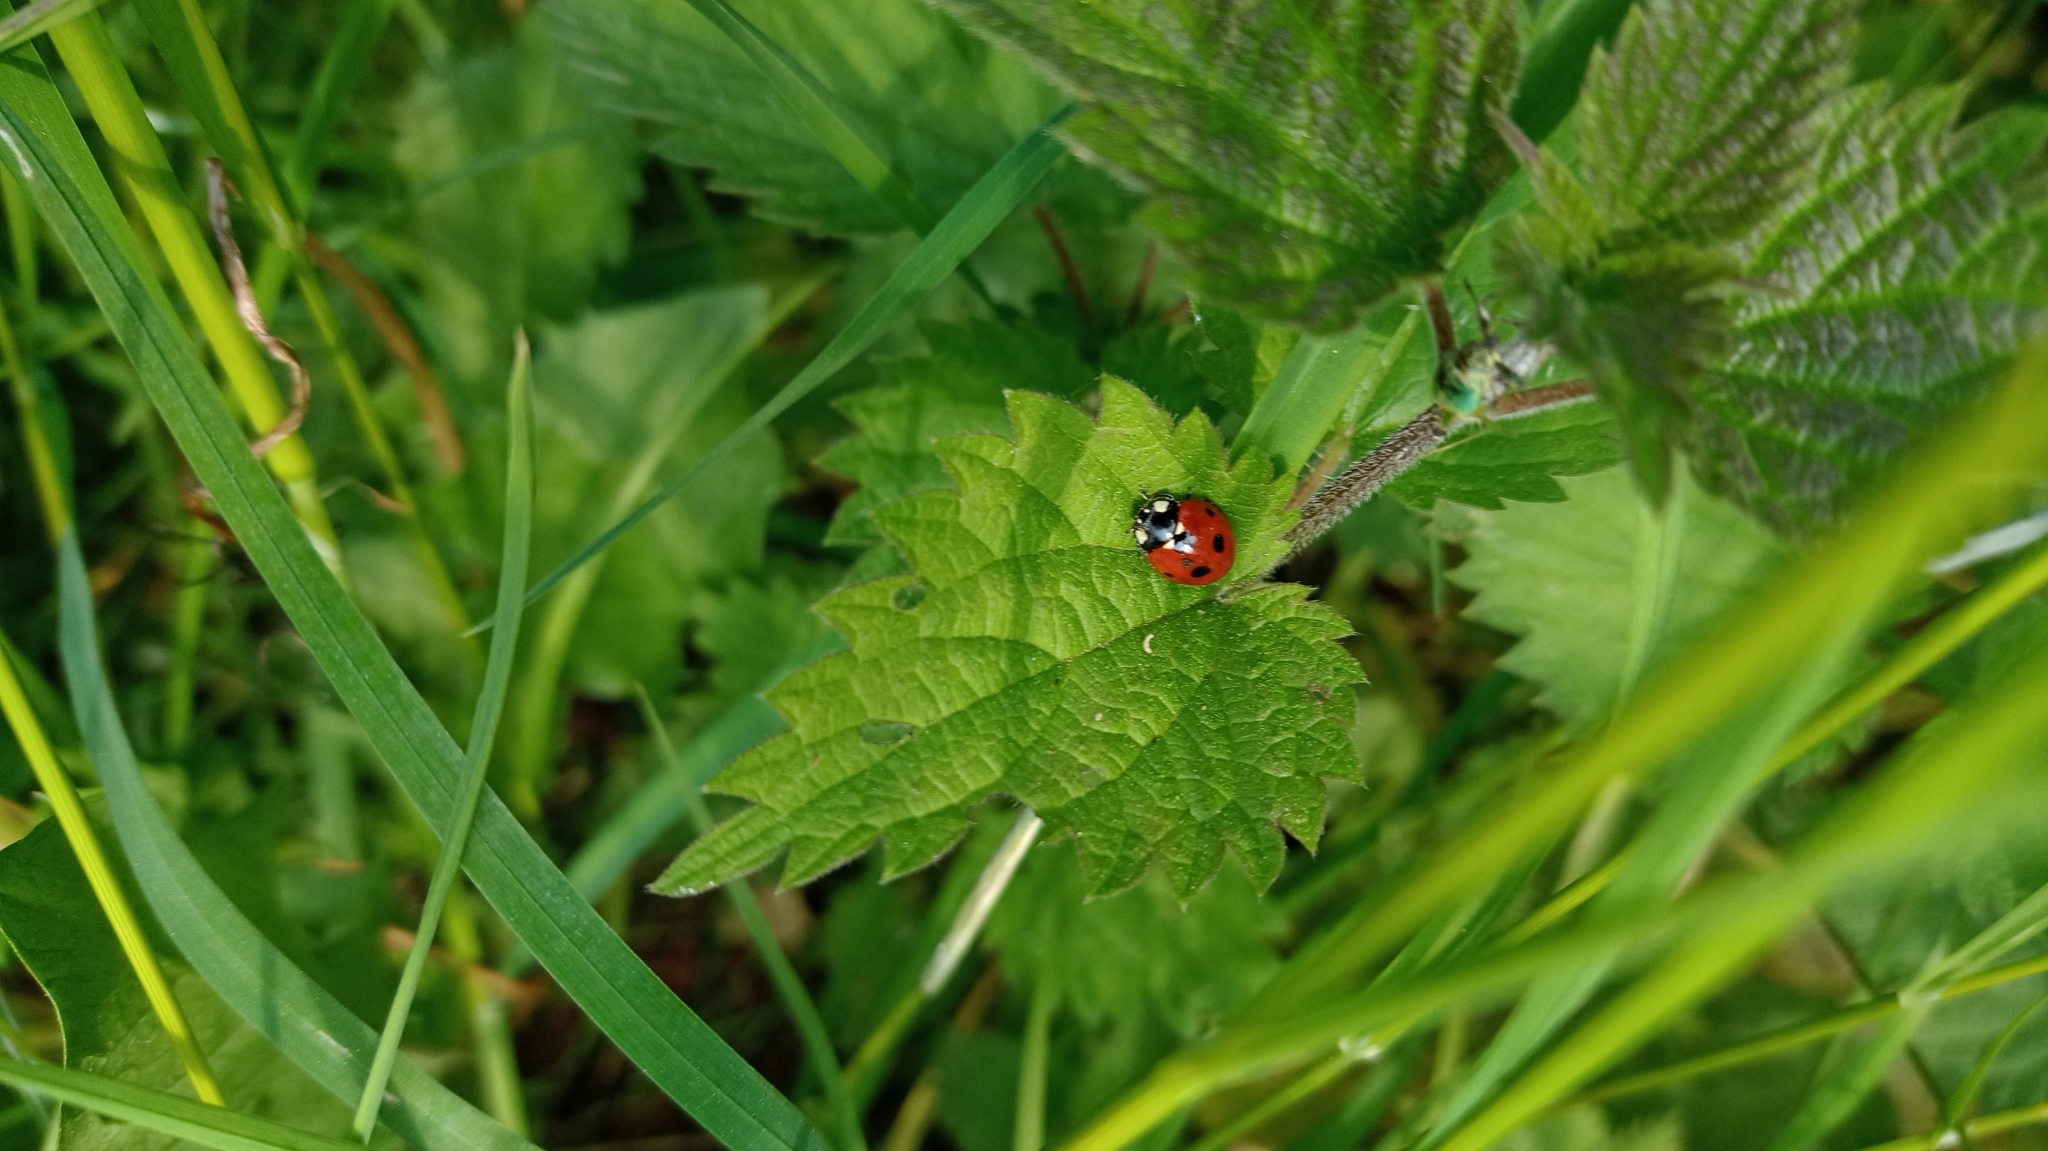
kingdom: Animalia
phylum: Arthropoda
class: Insecta
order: Coleoptera
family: Coccinellidae
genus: Coccinella
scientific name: Coccinella septempunctata
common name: Sevenspotted lady beetle
